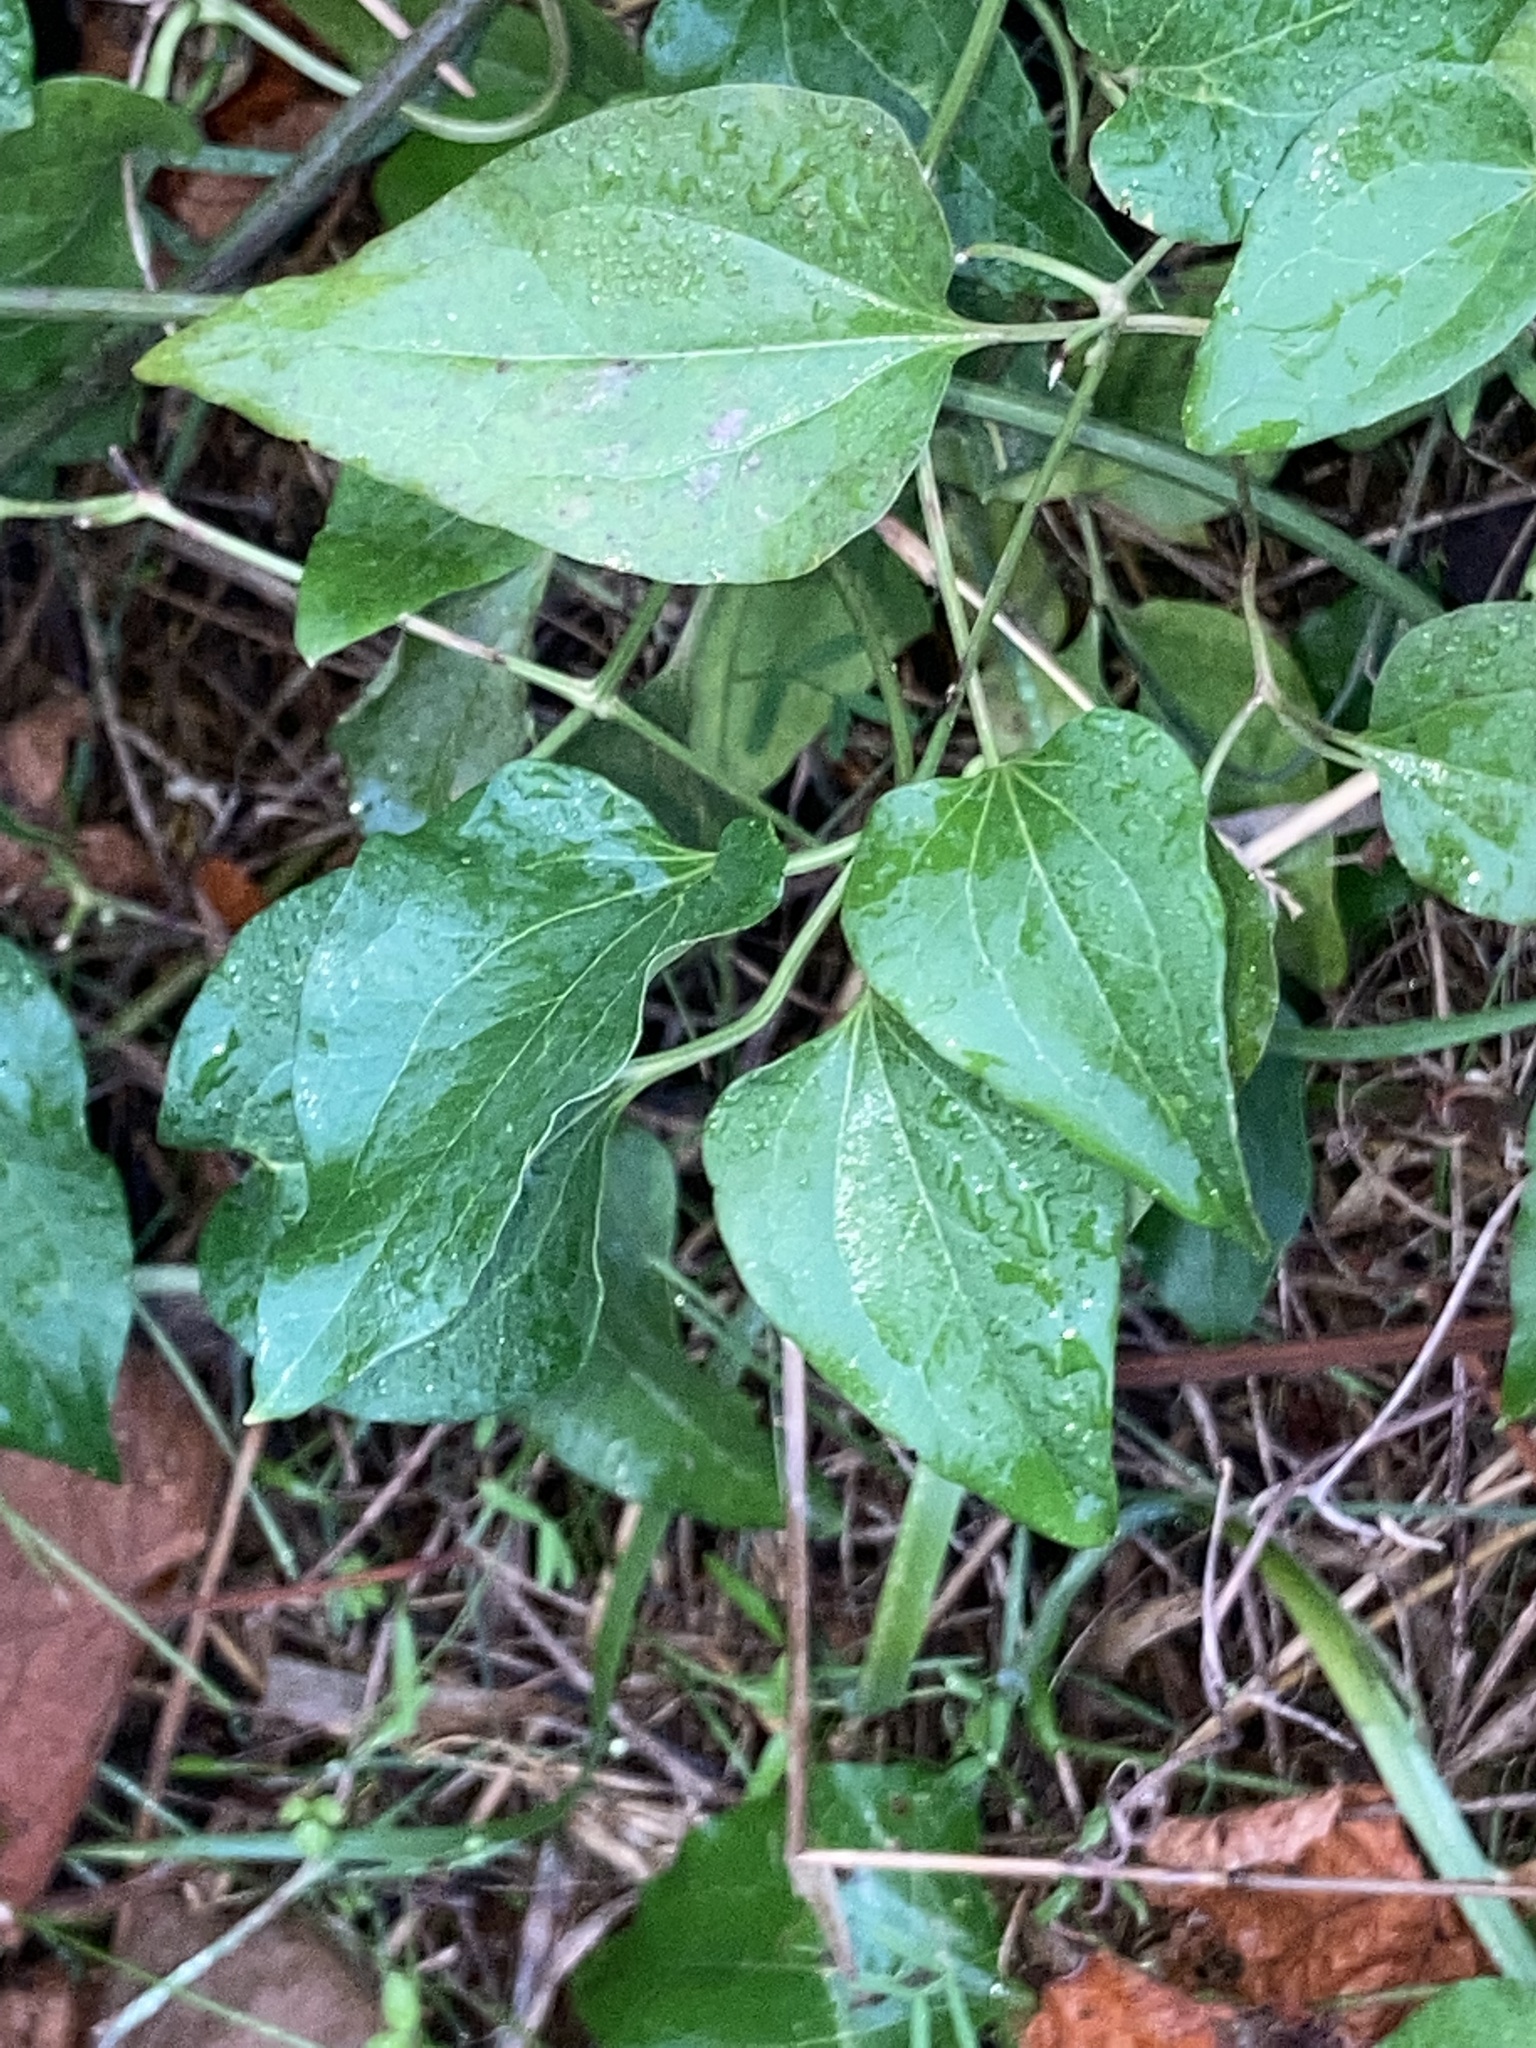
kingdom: Plantae
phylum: Tracheophyta
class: Magnoliopsida
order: Ranunculales
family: Ranunculaceae
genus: Clematis
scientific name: Clematis terniflora
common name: Sweet autumn clematis
